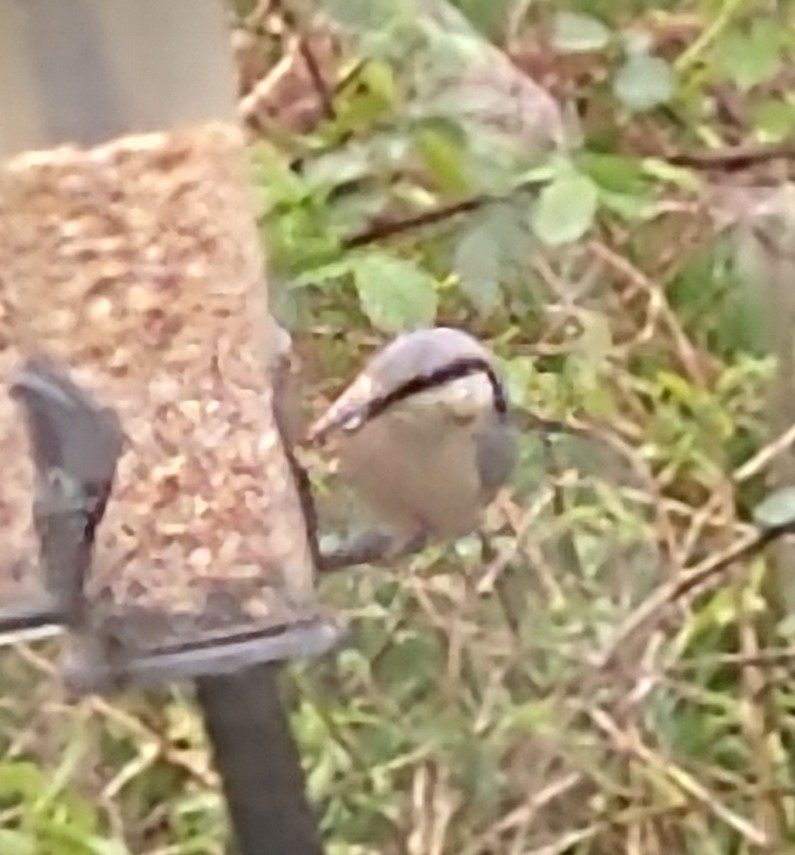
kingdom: Animalia
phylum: Chordata
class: Aves
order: Passeriformes
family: Sittidae
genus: Sitta
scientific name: Sitta europaea
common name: Eurasian nuthatch
